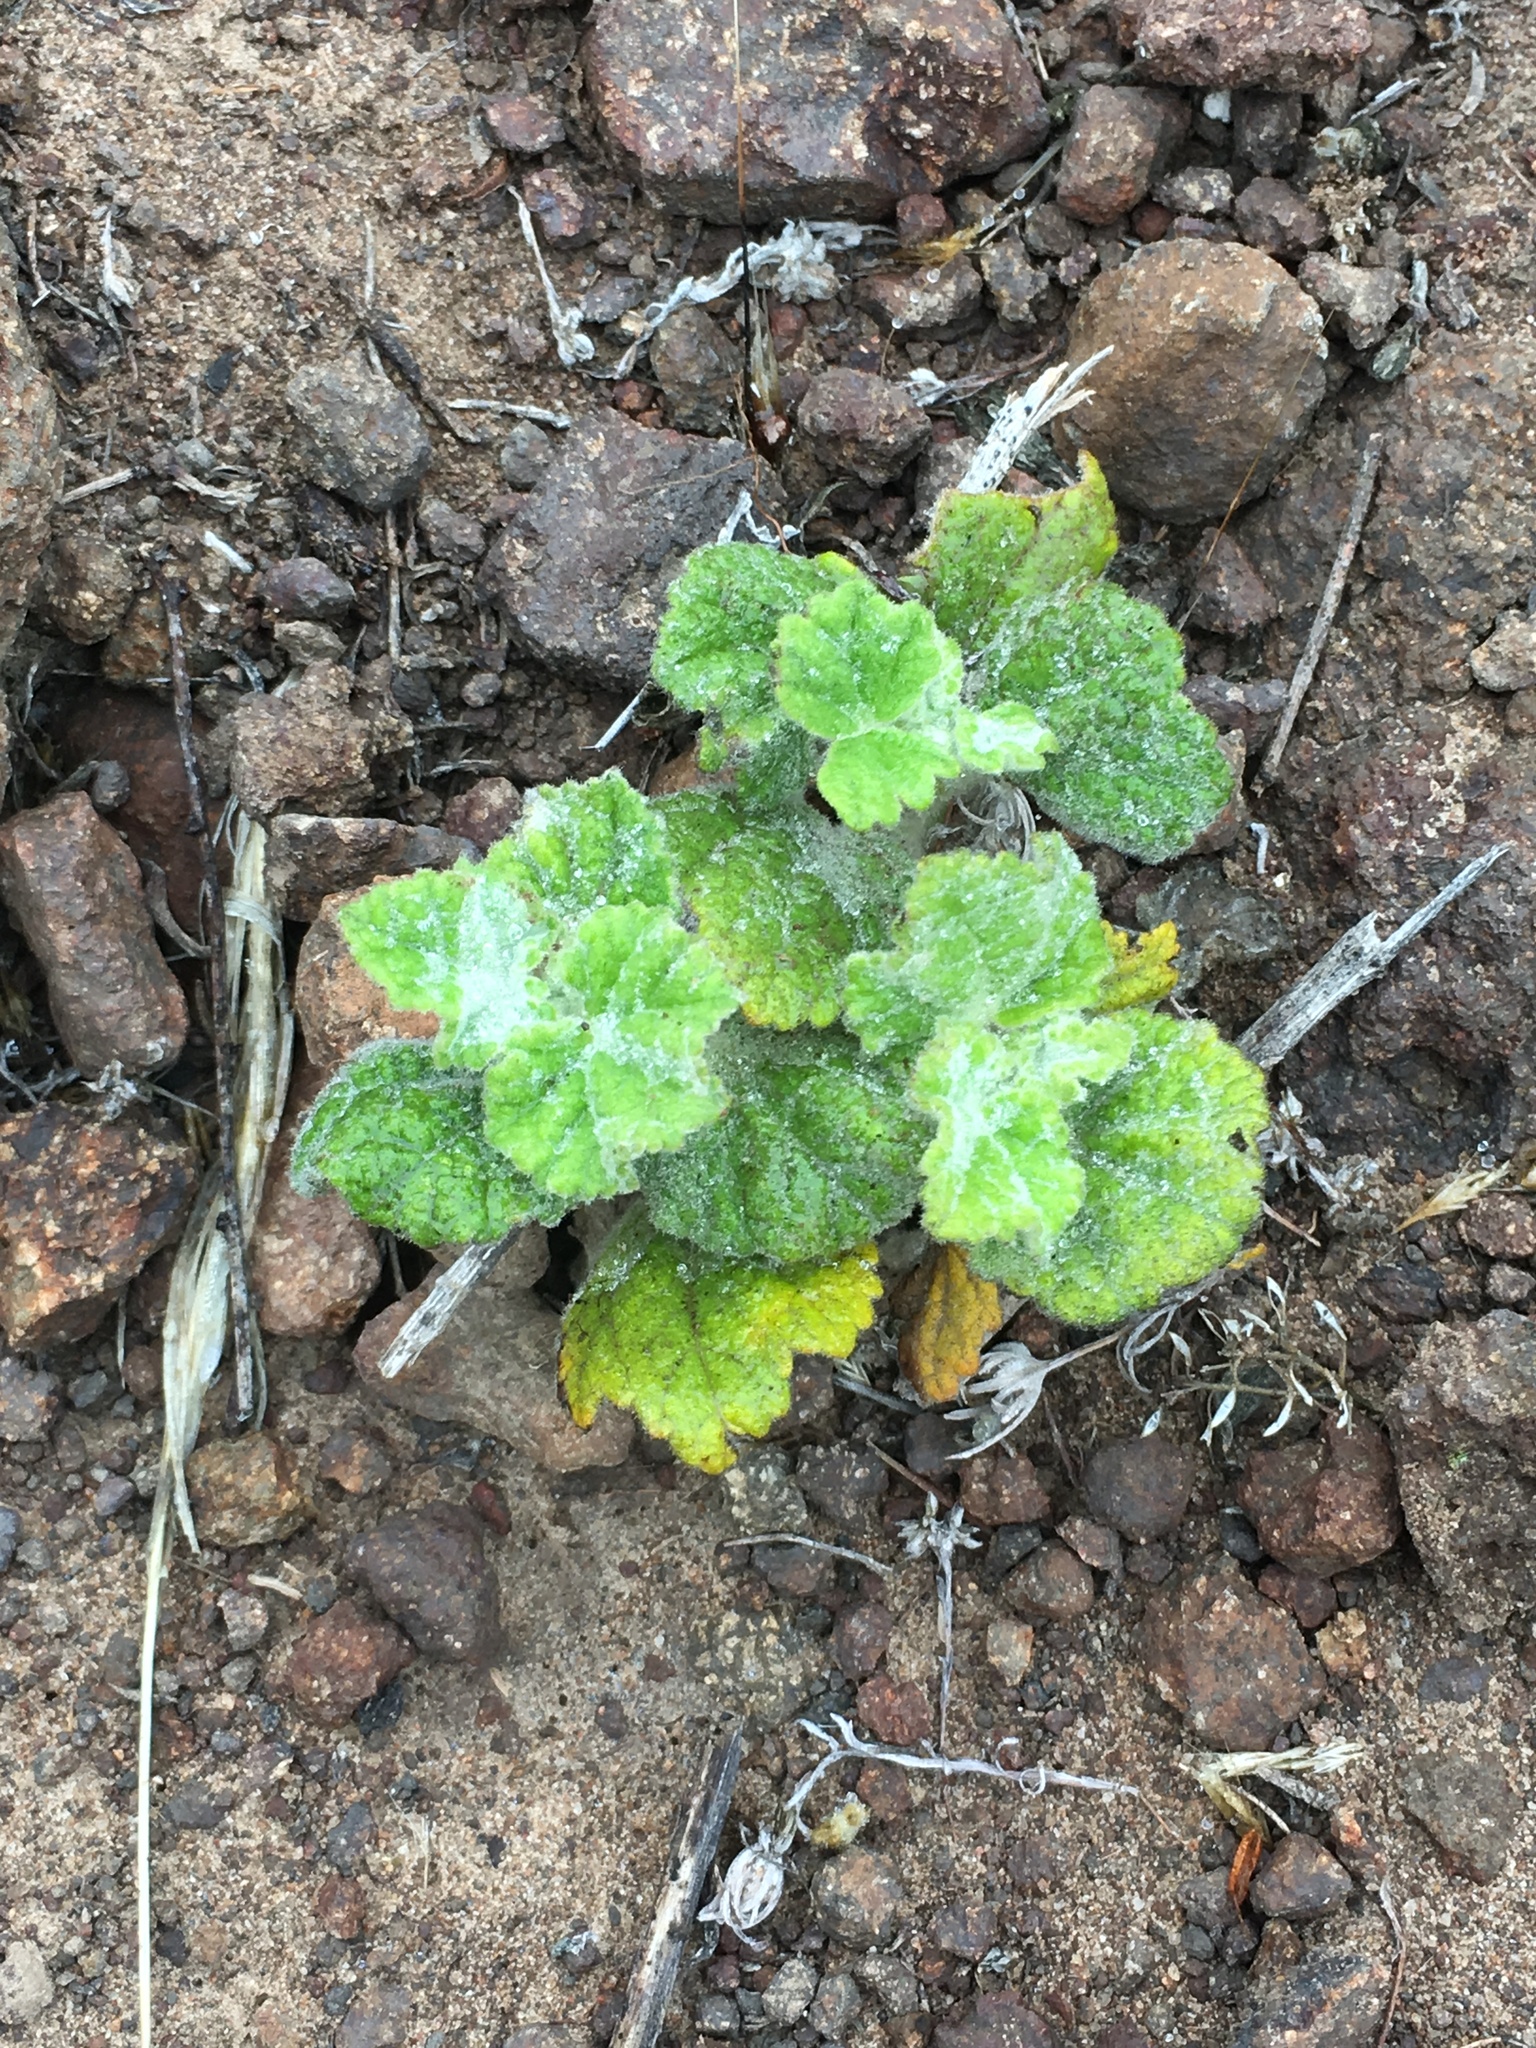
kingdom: Plantae
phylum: Tracheophyta
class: Magnoliopsida
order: Malvales
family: Malvaceae
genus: Malacothamnus
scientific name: Malacothamnus clementinus
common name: San clemente island bush-mallow
